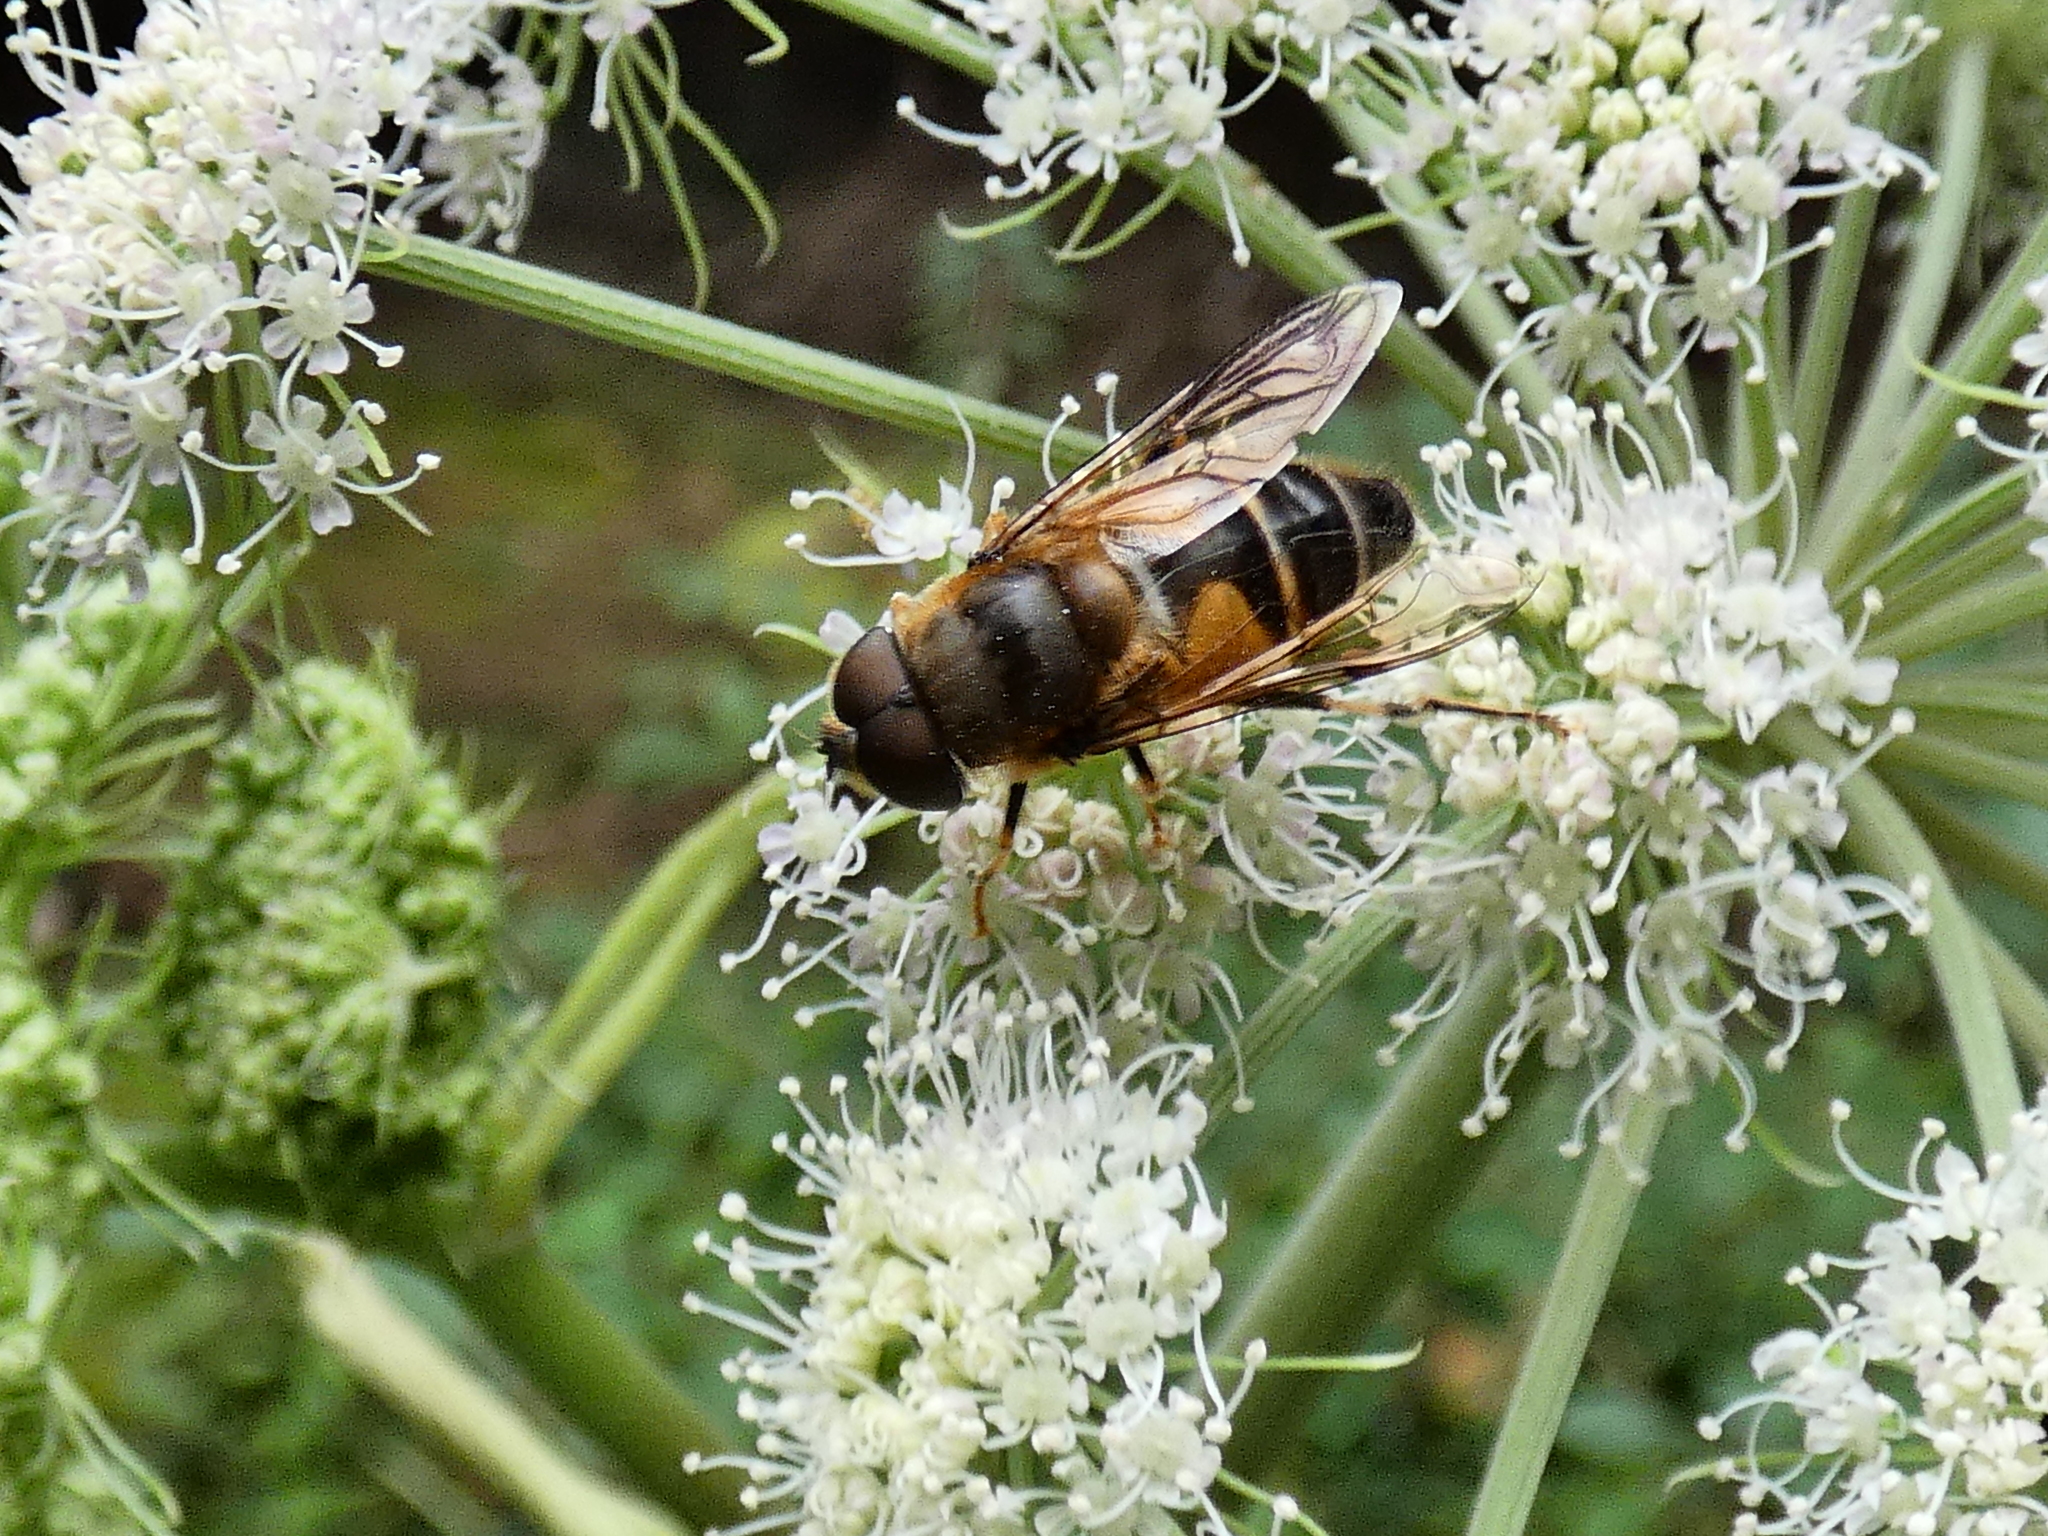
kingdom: Animalia
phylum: Arthropoda
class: Insecta
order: Diptera
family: Syrphidae
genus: Eristalis
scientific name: Eristalis pertinax
